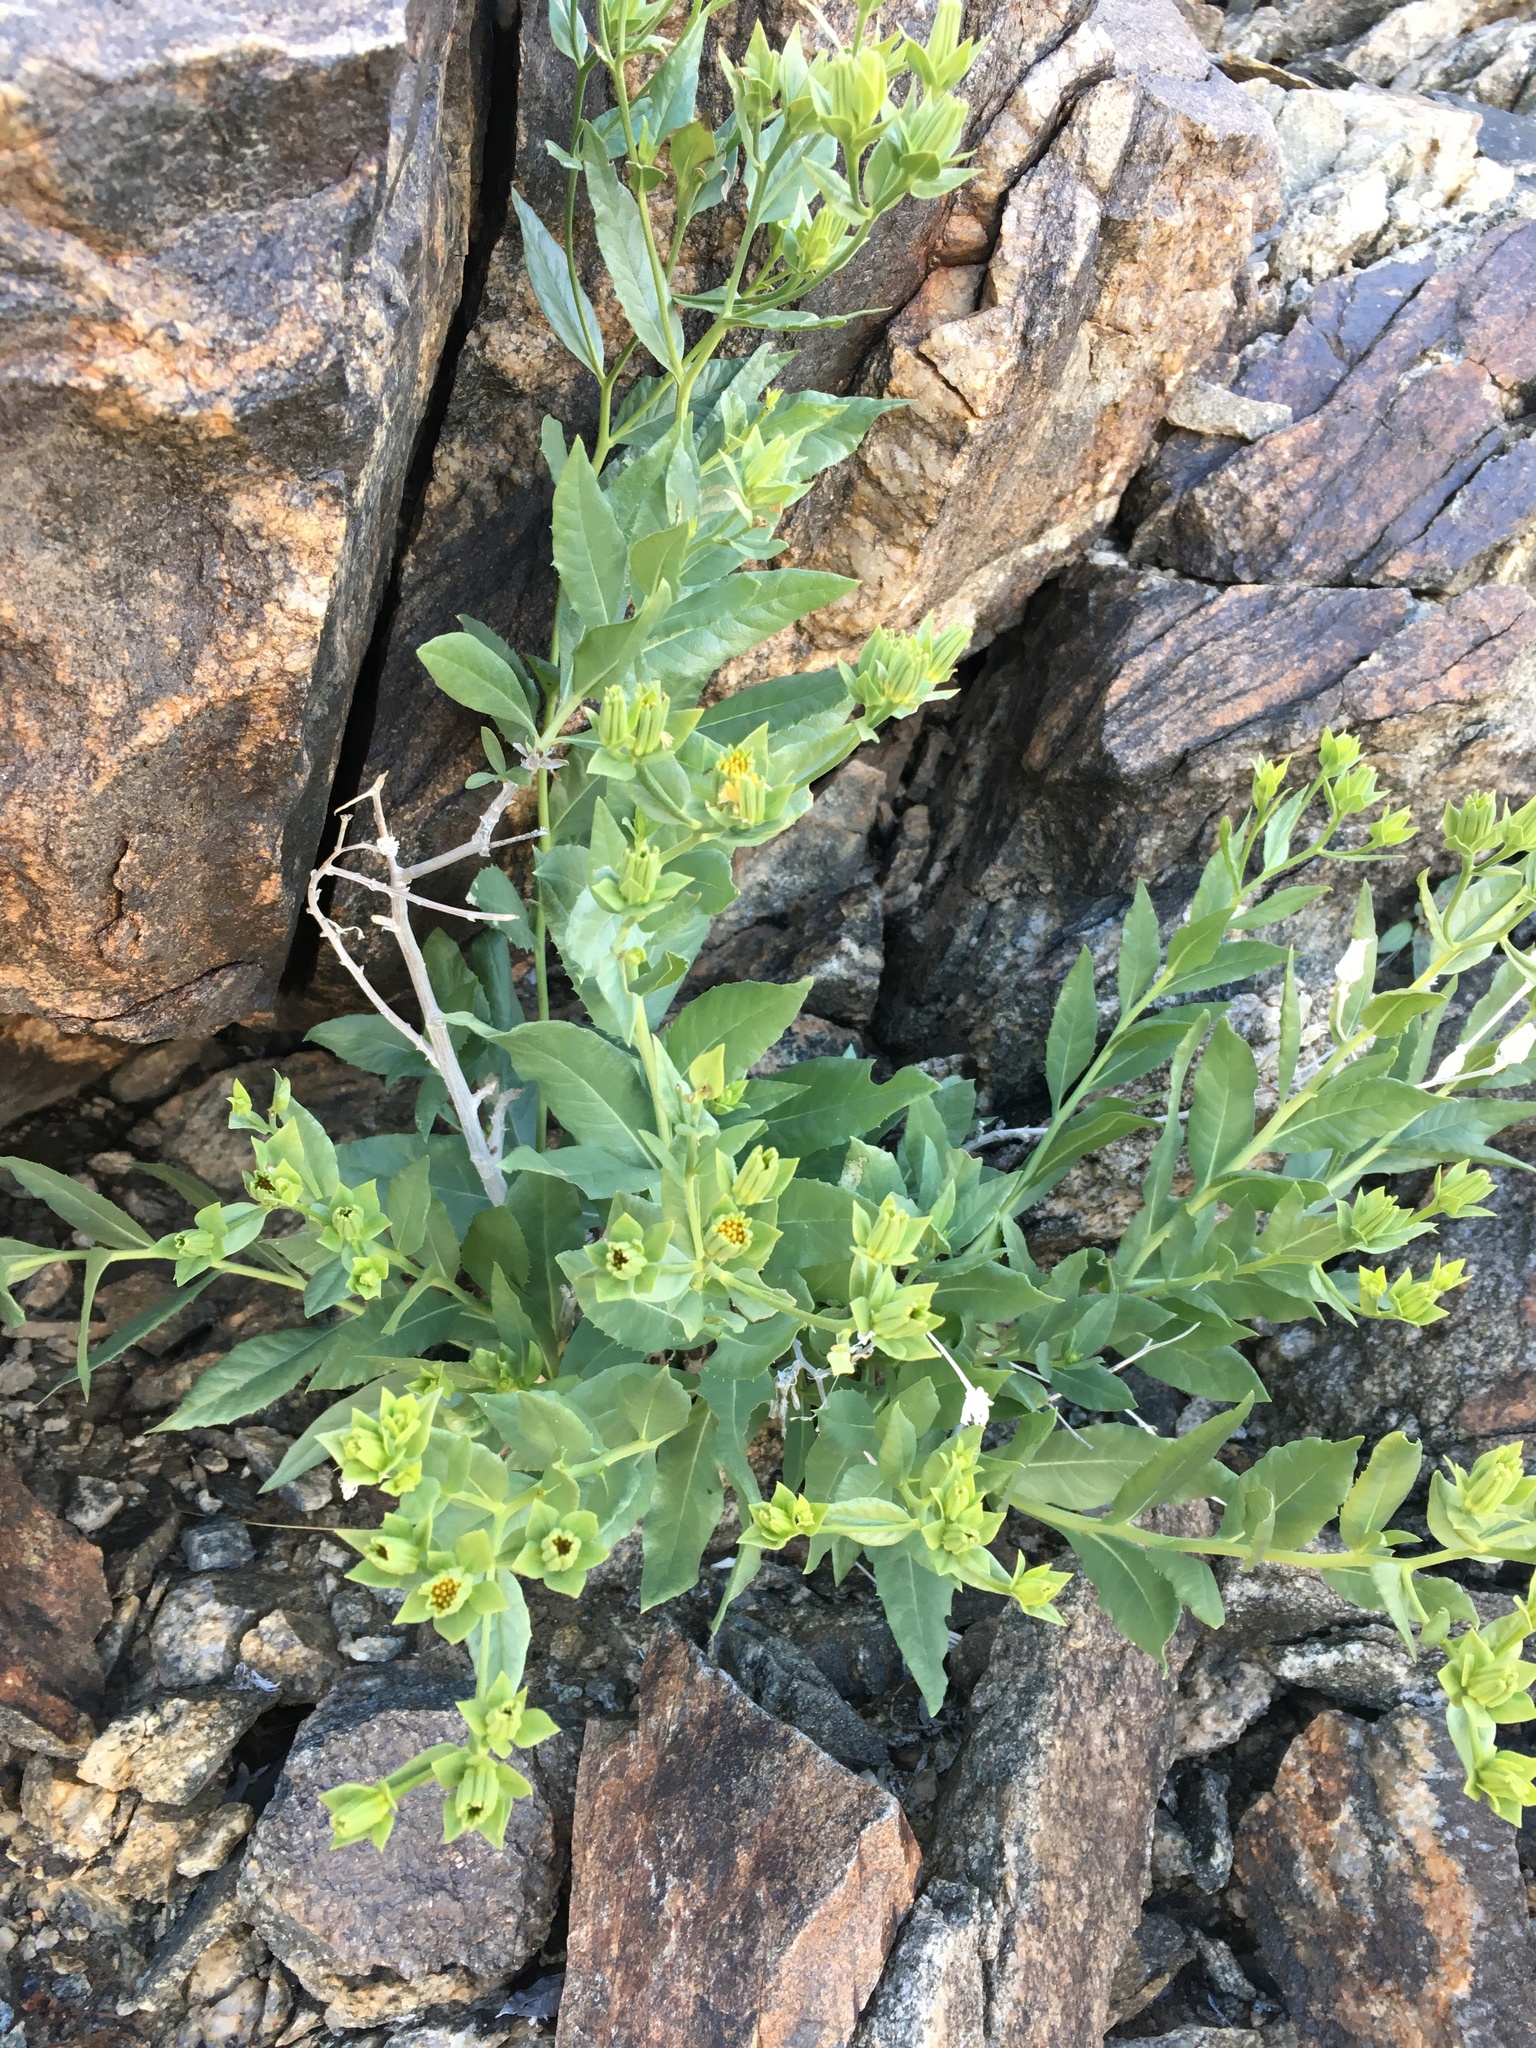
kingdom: Plantae
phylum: Tracheophyta
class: Magnoliopsida
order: Asterales
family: Asteraceae
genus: Trixis
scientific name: Trixis californica
